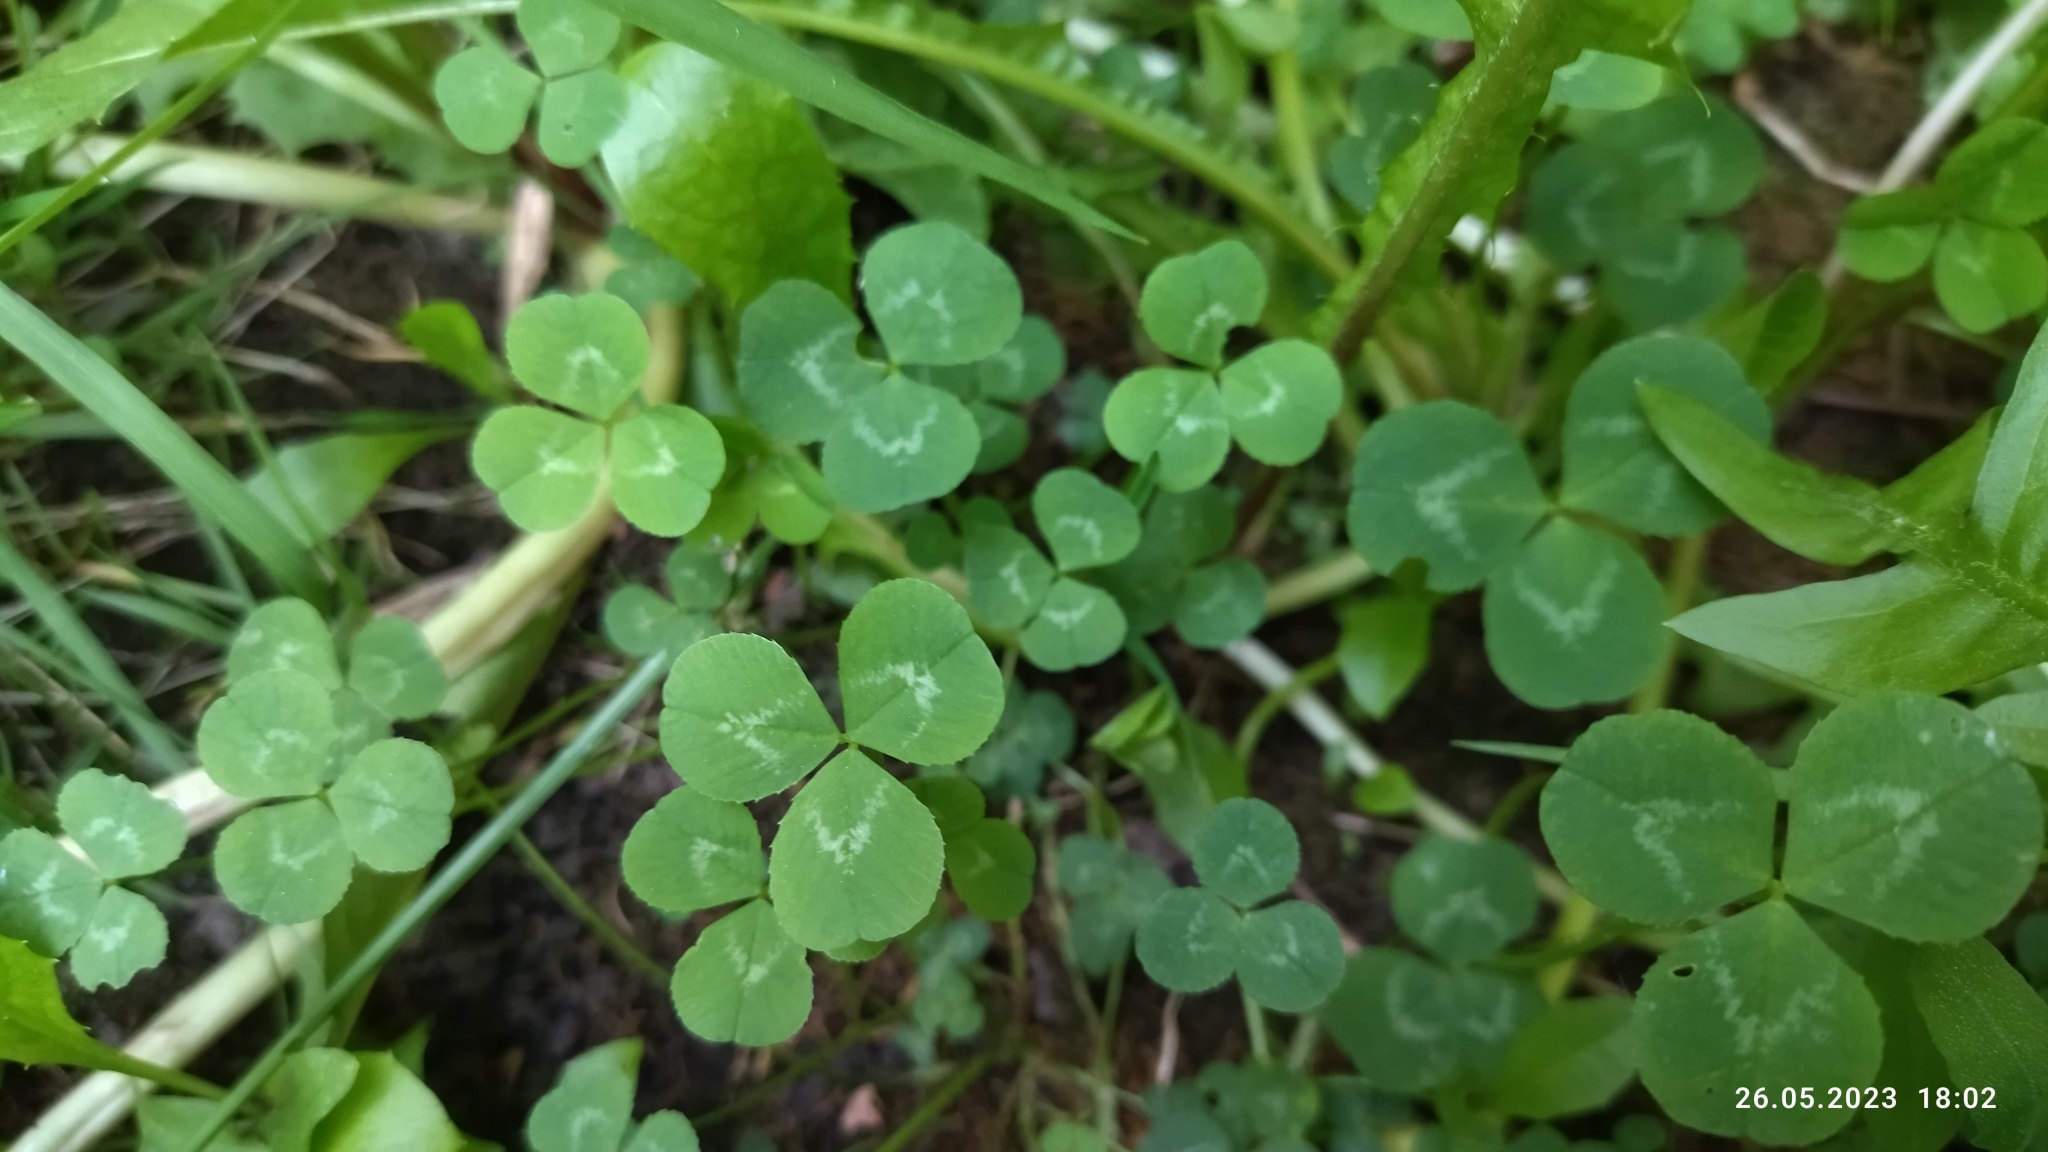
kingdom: Plantae
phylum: Tracheophyta
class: Magnoliopsida
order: Fabales
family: Fabaceae
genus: Trifolium
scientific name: Trifolium repens
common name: White clover
